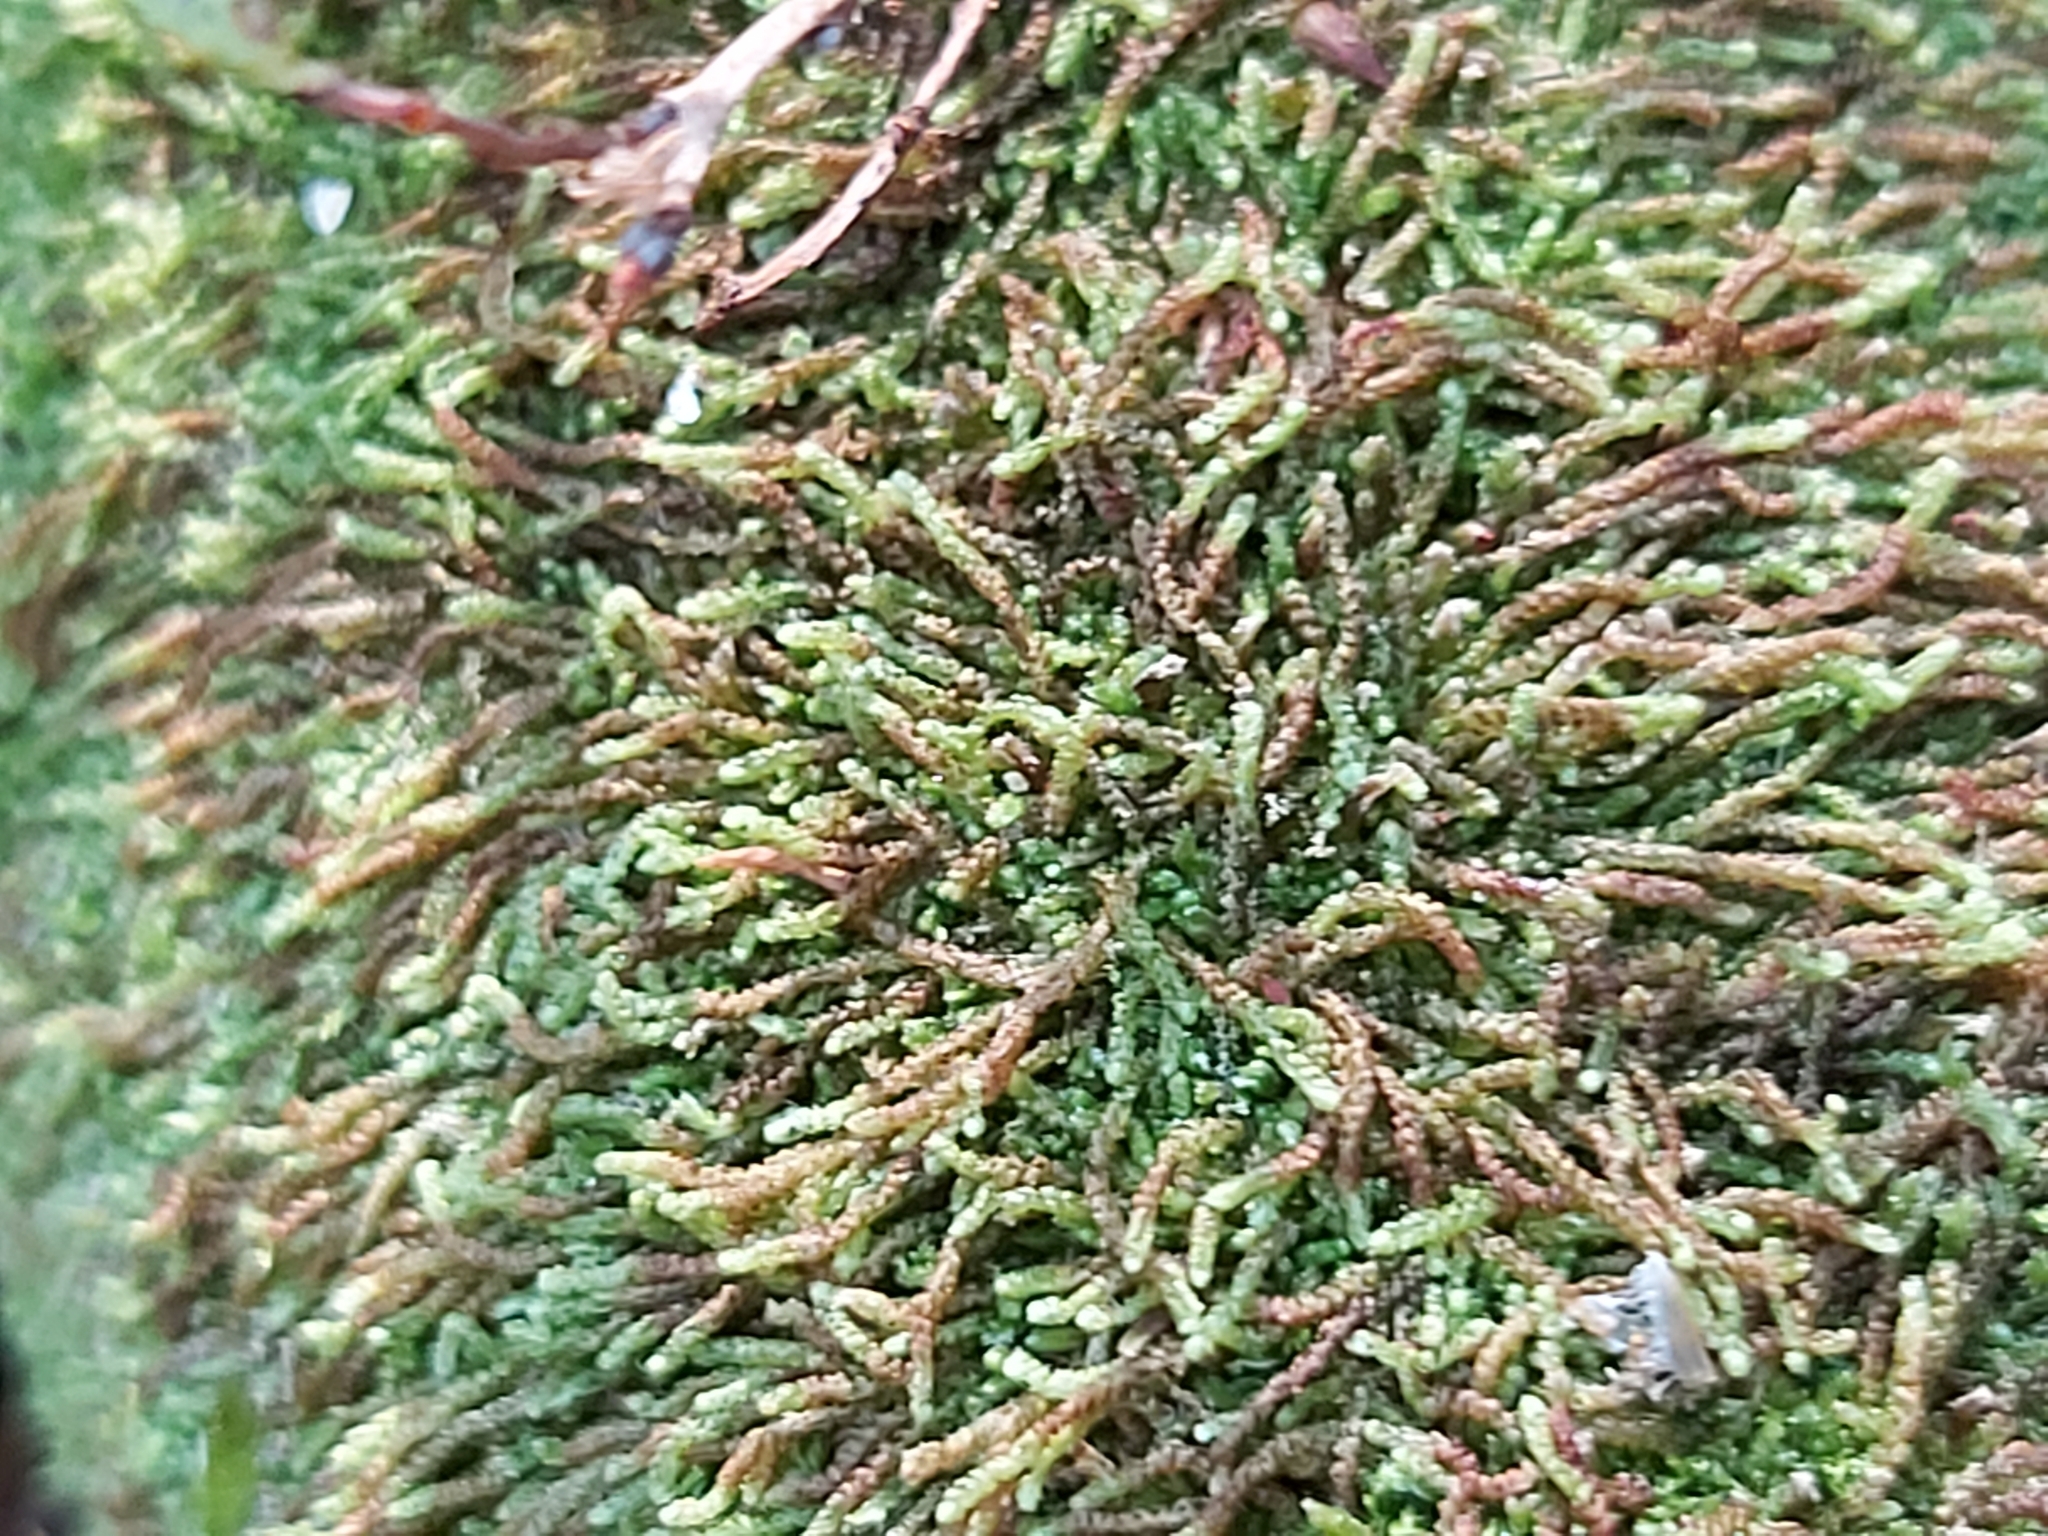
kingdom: Plantae
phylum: Marchantiophyta
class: Jungermanniopsida
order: Jungermanniales
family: Cephaloziaceae
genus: Nowellia
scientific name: Nowellia curvifolia
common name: Wood rustwort
